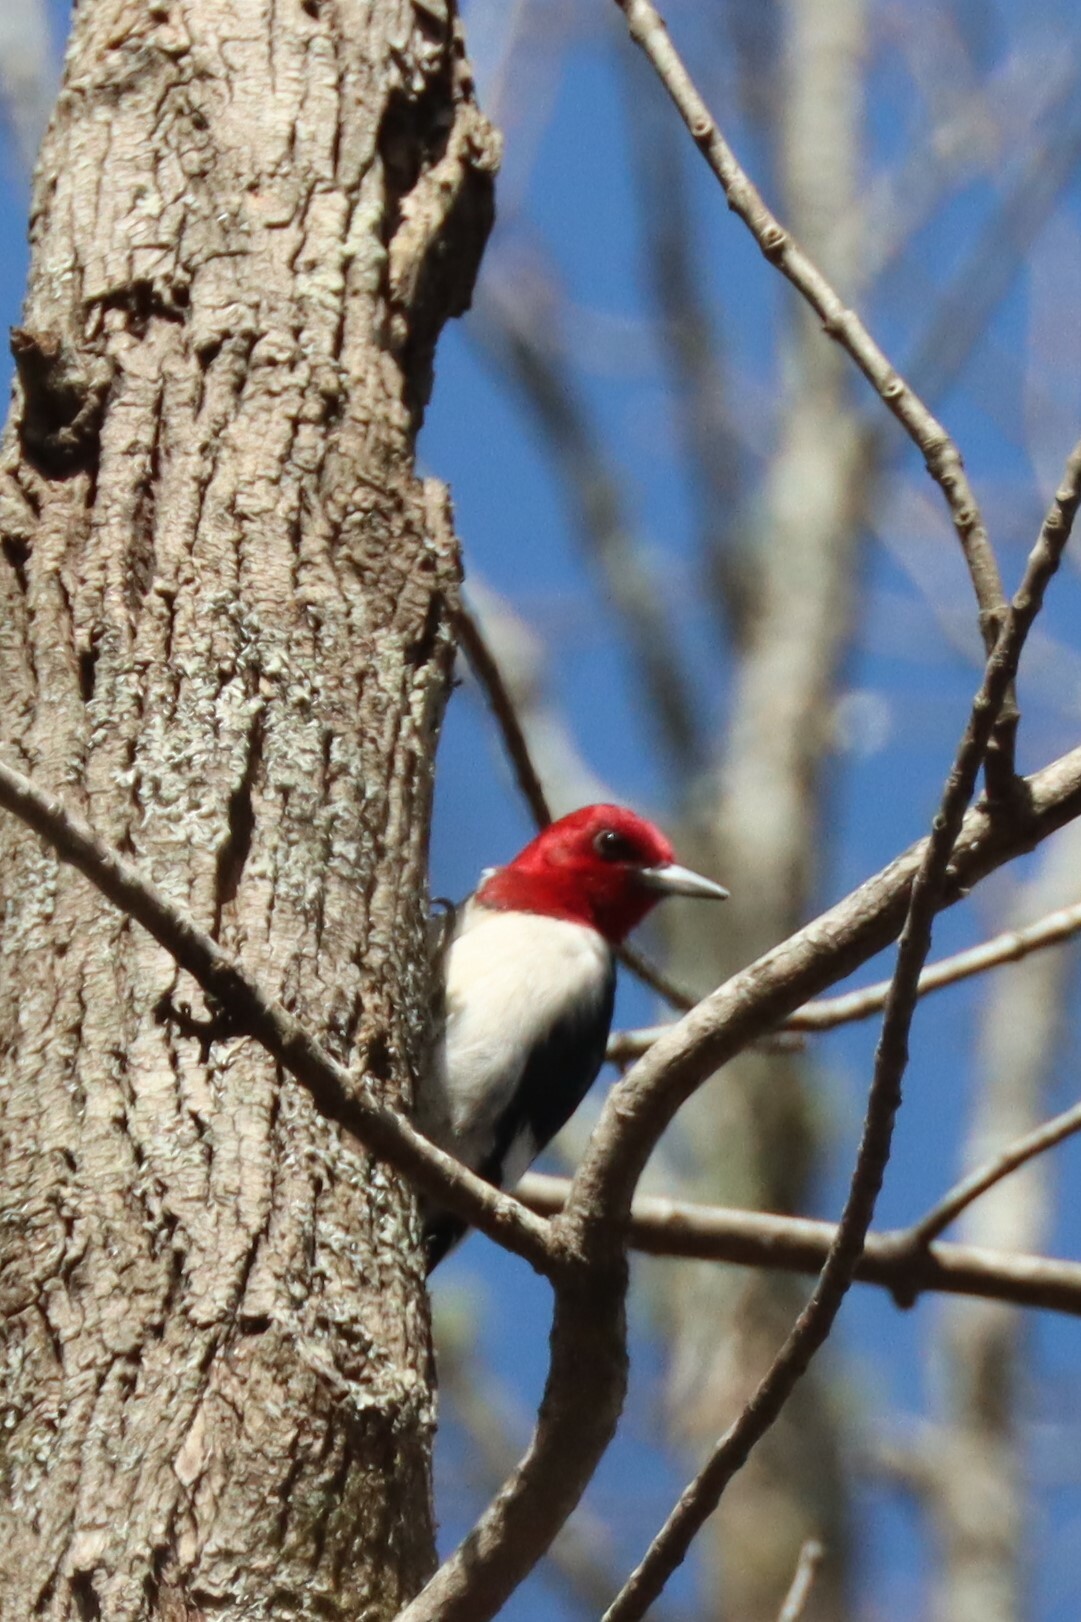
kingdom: Animalia
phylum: Chordata
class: Aves
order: Piciformes
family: Picidae
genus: Melanerpes
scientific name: Melanerpes erythrocephalus
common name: Red-headed woodpecker
